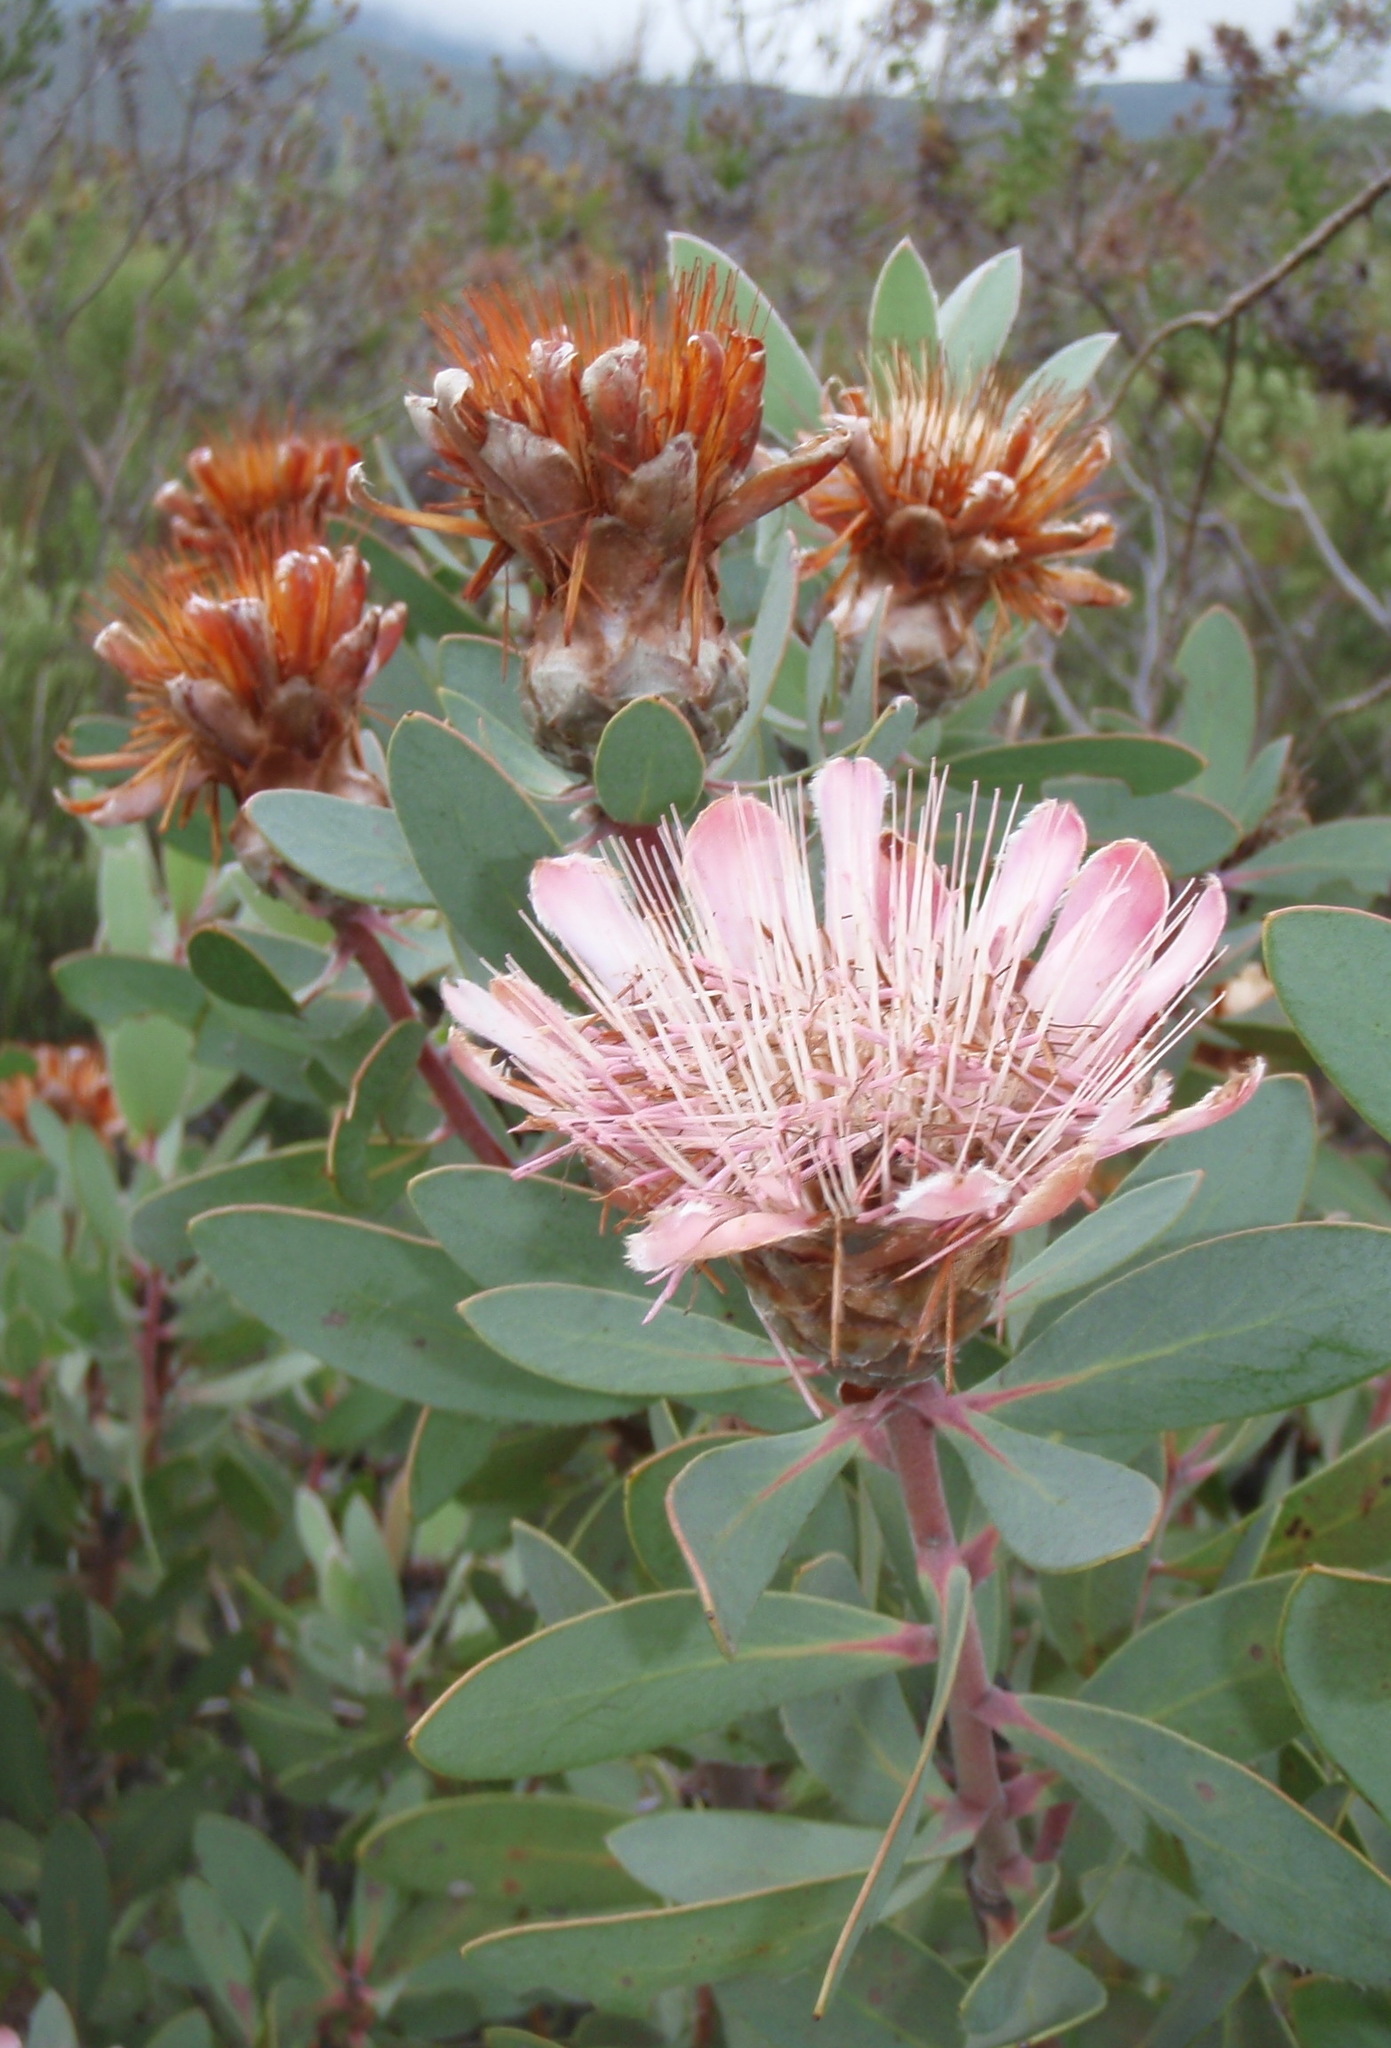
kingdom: Plantae
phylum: Tracheophyta
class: Magnoliopsida
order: Proteales
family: Proteaceae
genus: Protea
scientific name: Protea punctata
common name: Water sugarbush
